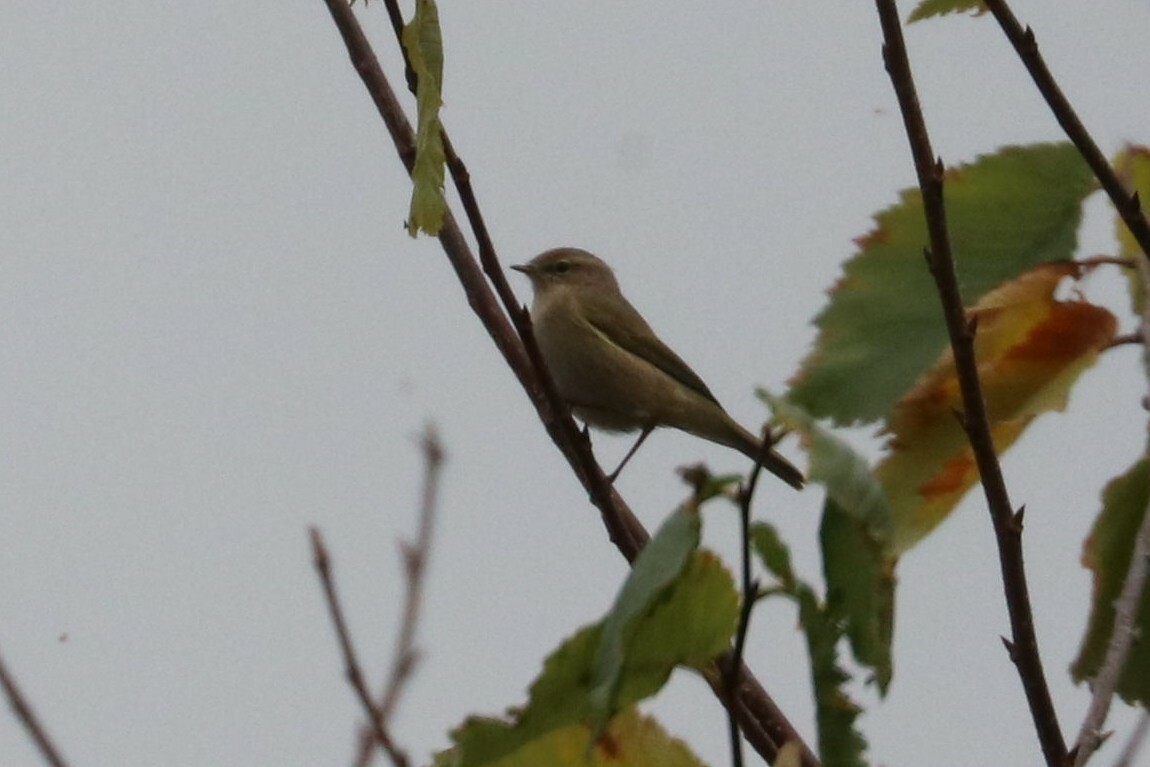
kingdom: Animalia
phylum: Chordata
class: Aves
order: Passeriformes
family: Phylloscopidae
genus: Phylloscopus
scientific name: Phylloscopus collybita
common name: Common chiffchaff
